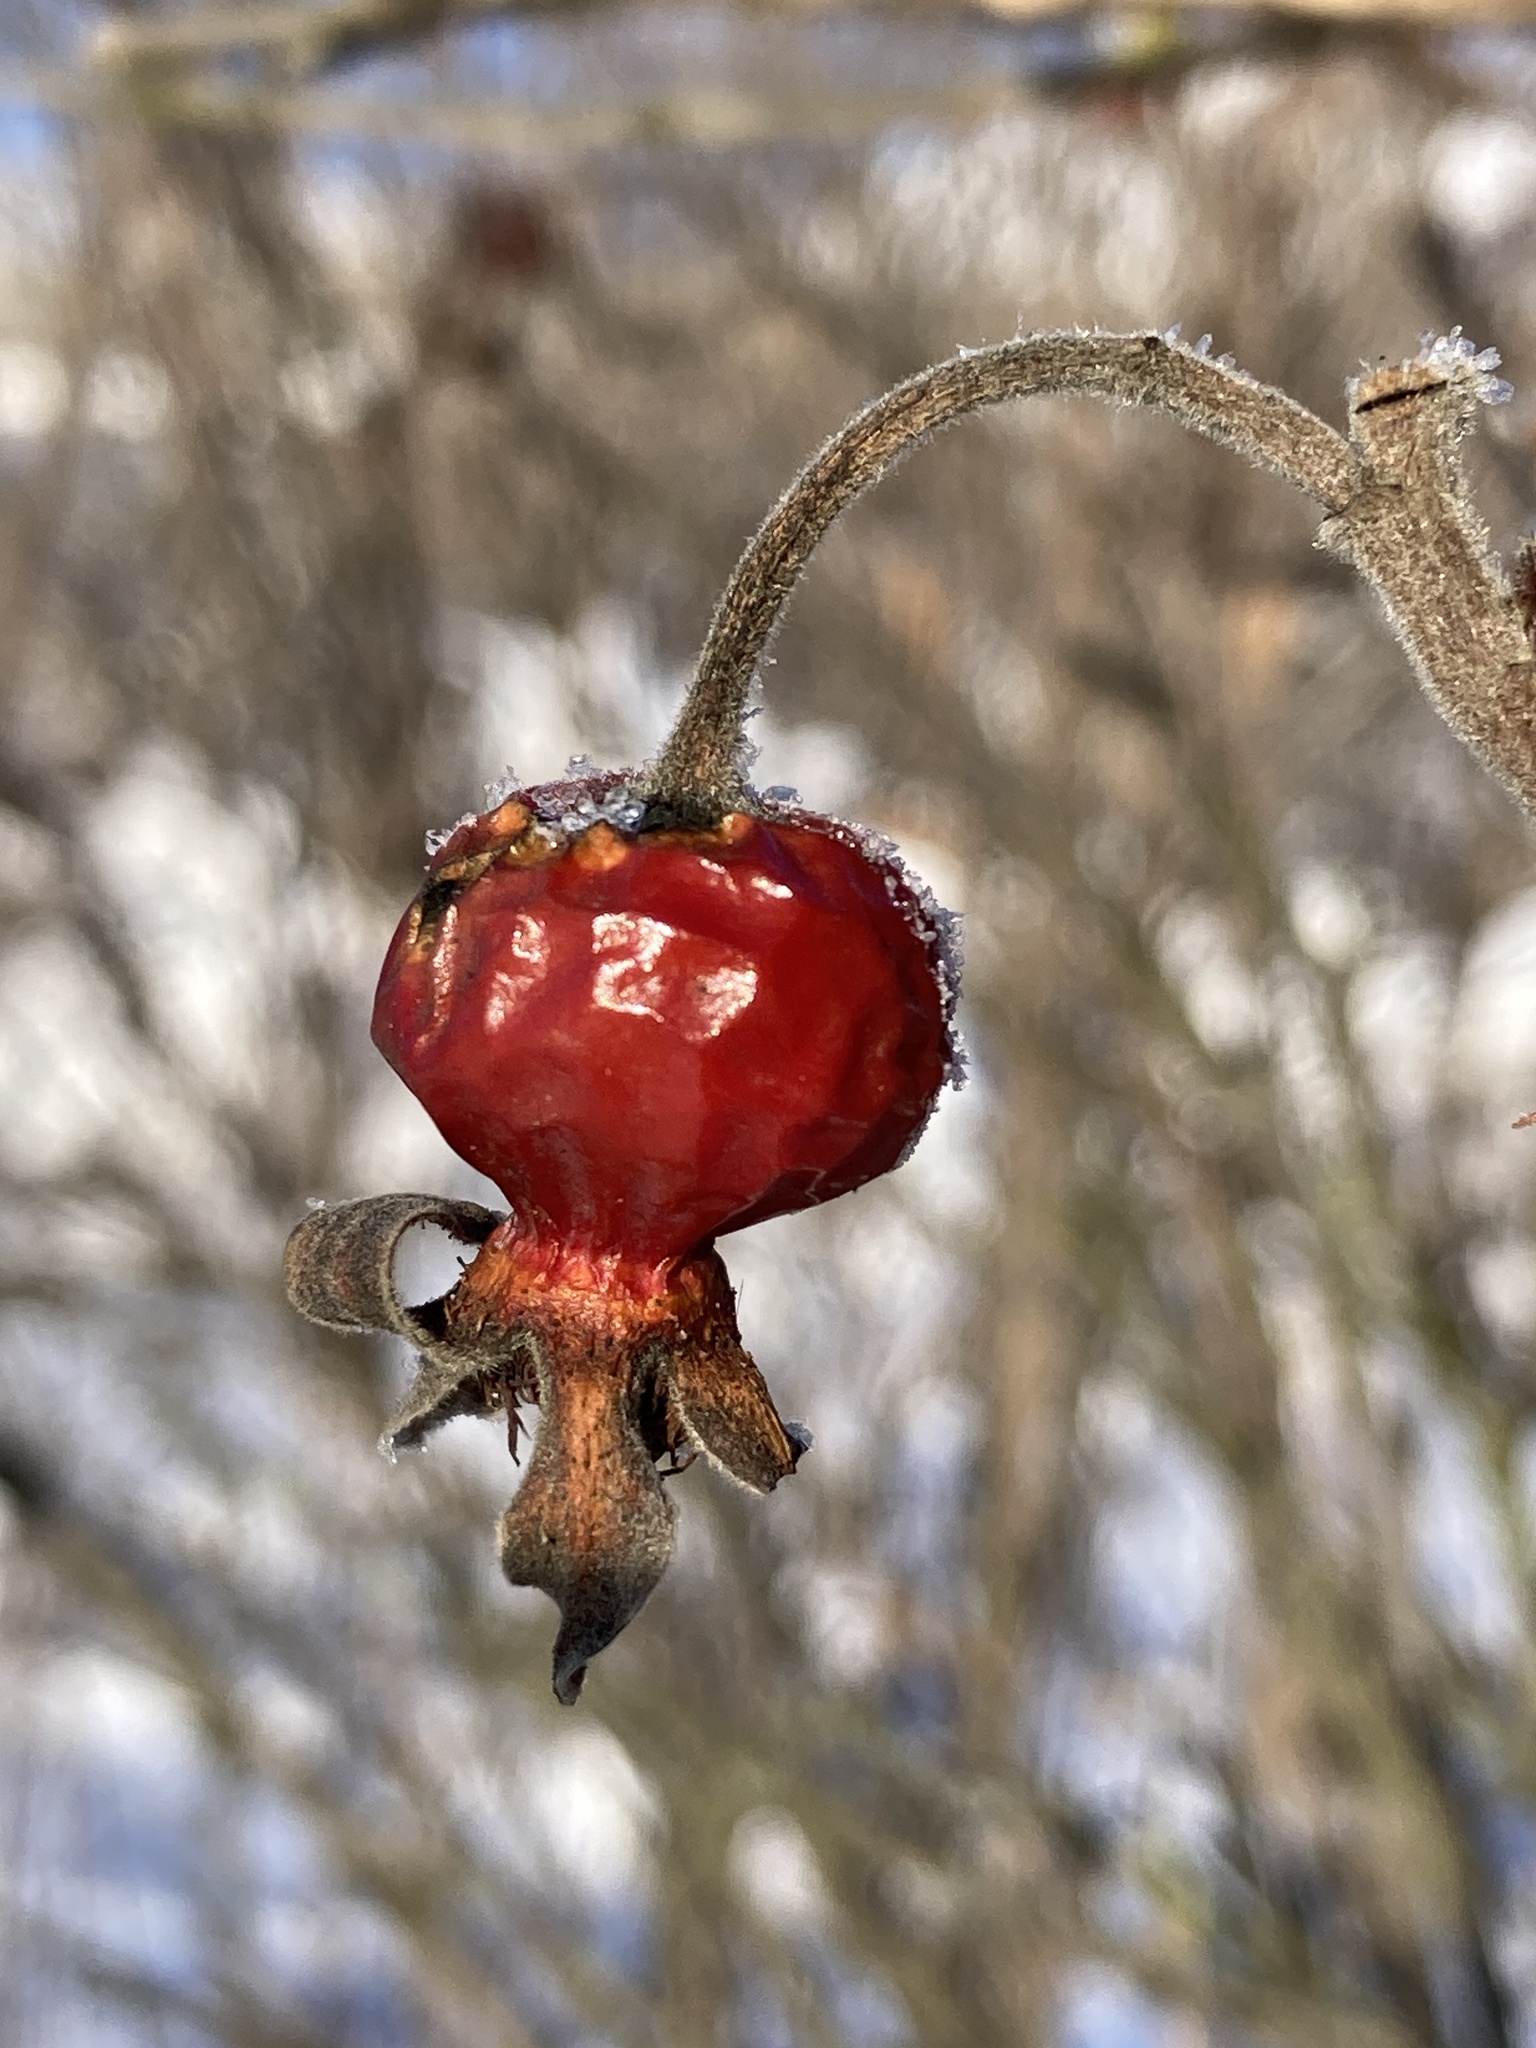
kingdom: Plantae
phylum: Tracheophyta
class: Magnoliopsida
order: Rosales
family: Rosaceae
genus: Rosa
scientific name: Rosa rugosa
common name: Japanese rose
